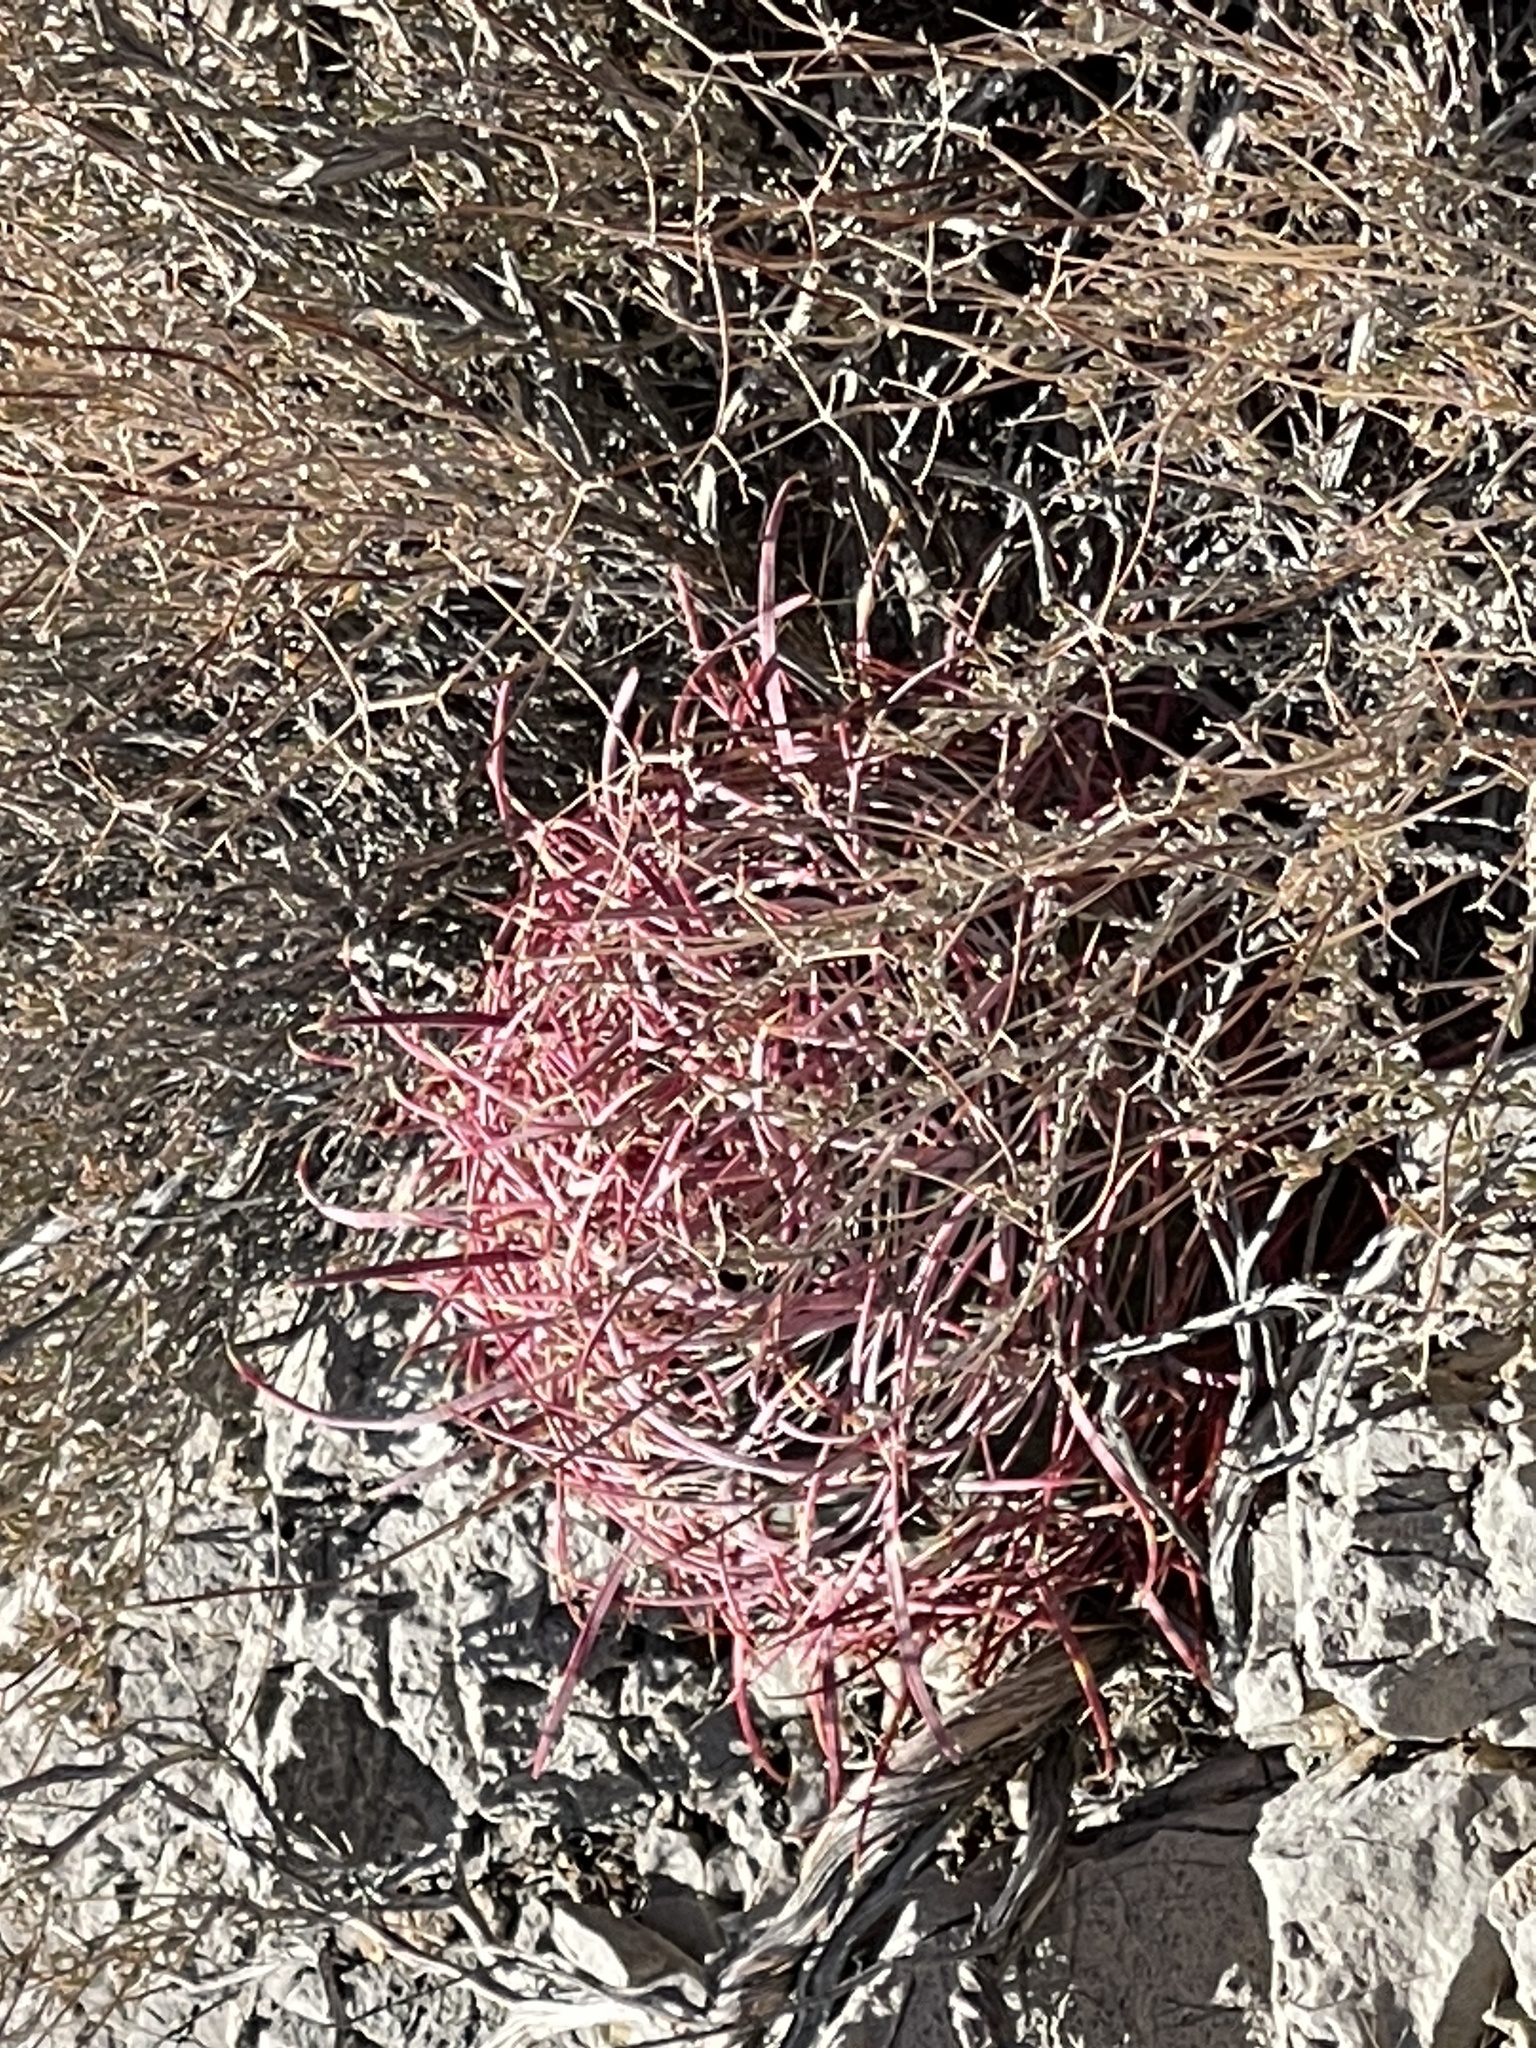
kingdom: Plantae
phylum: Tracheophyta
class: Magnoliopsida
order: Caryophyllales
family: Cactaceae
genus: Ferocactus
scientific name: Ferocactus cylindraceus
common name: California barrel cactus
